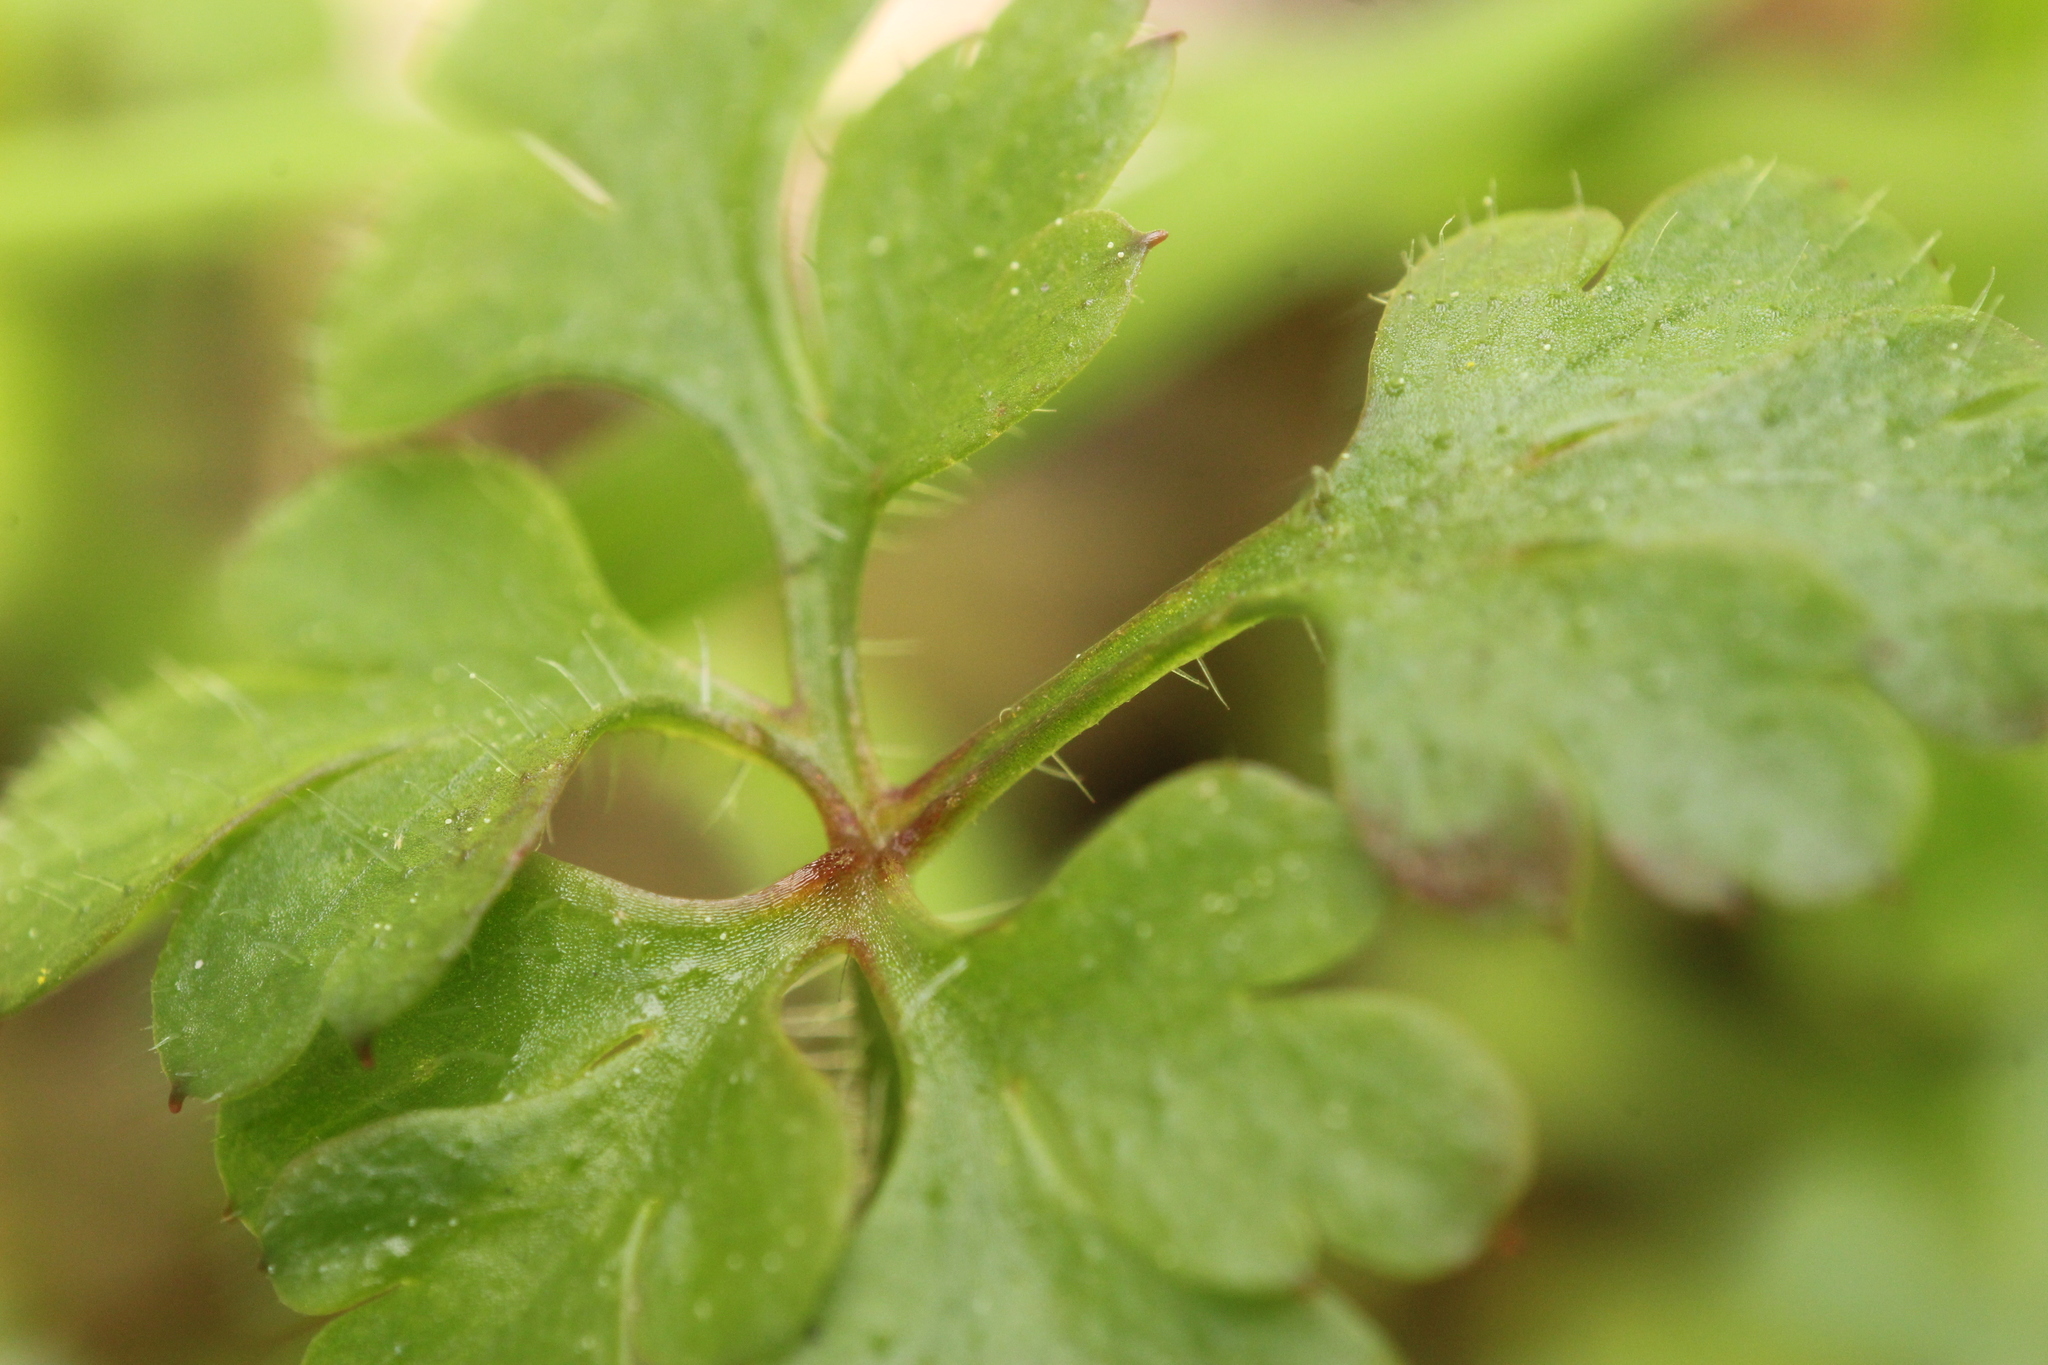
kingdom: Plantae
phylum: Tracheophyta
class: Magnoliopsida
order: Geraniales
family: Geraniaceae
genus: Geranium
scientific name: Geranium robertianum
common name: Herb-robert
